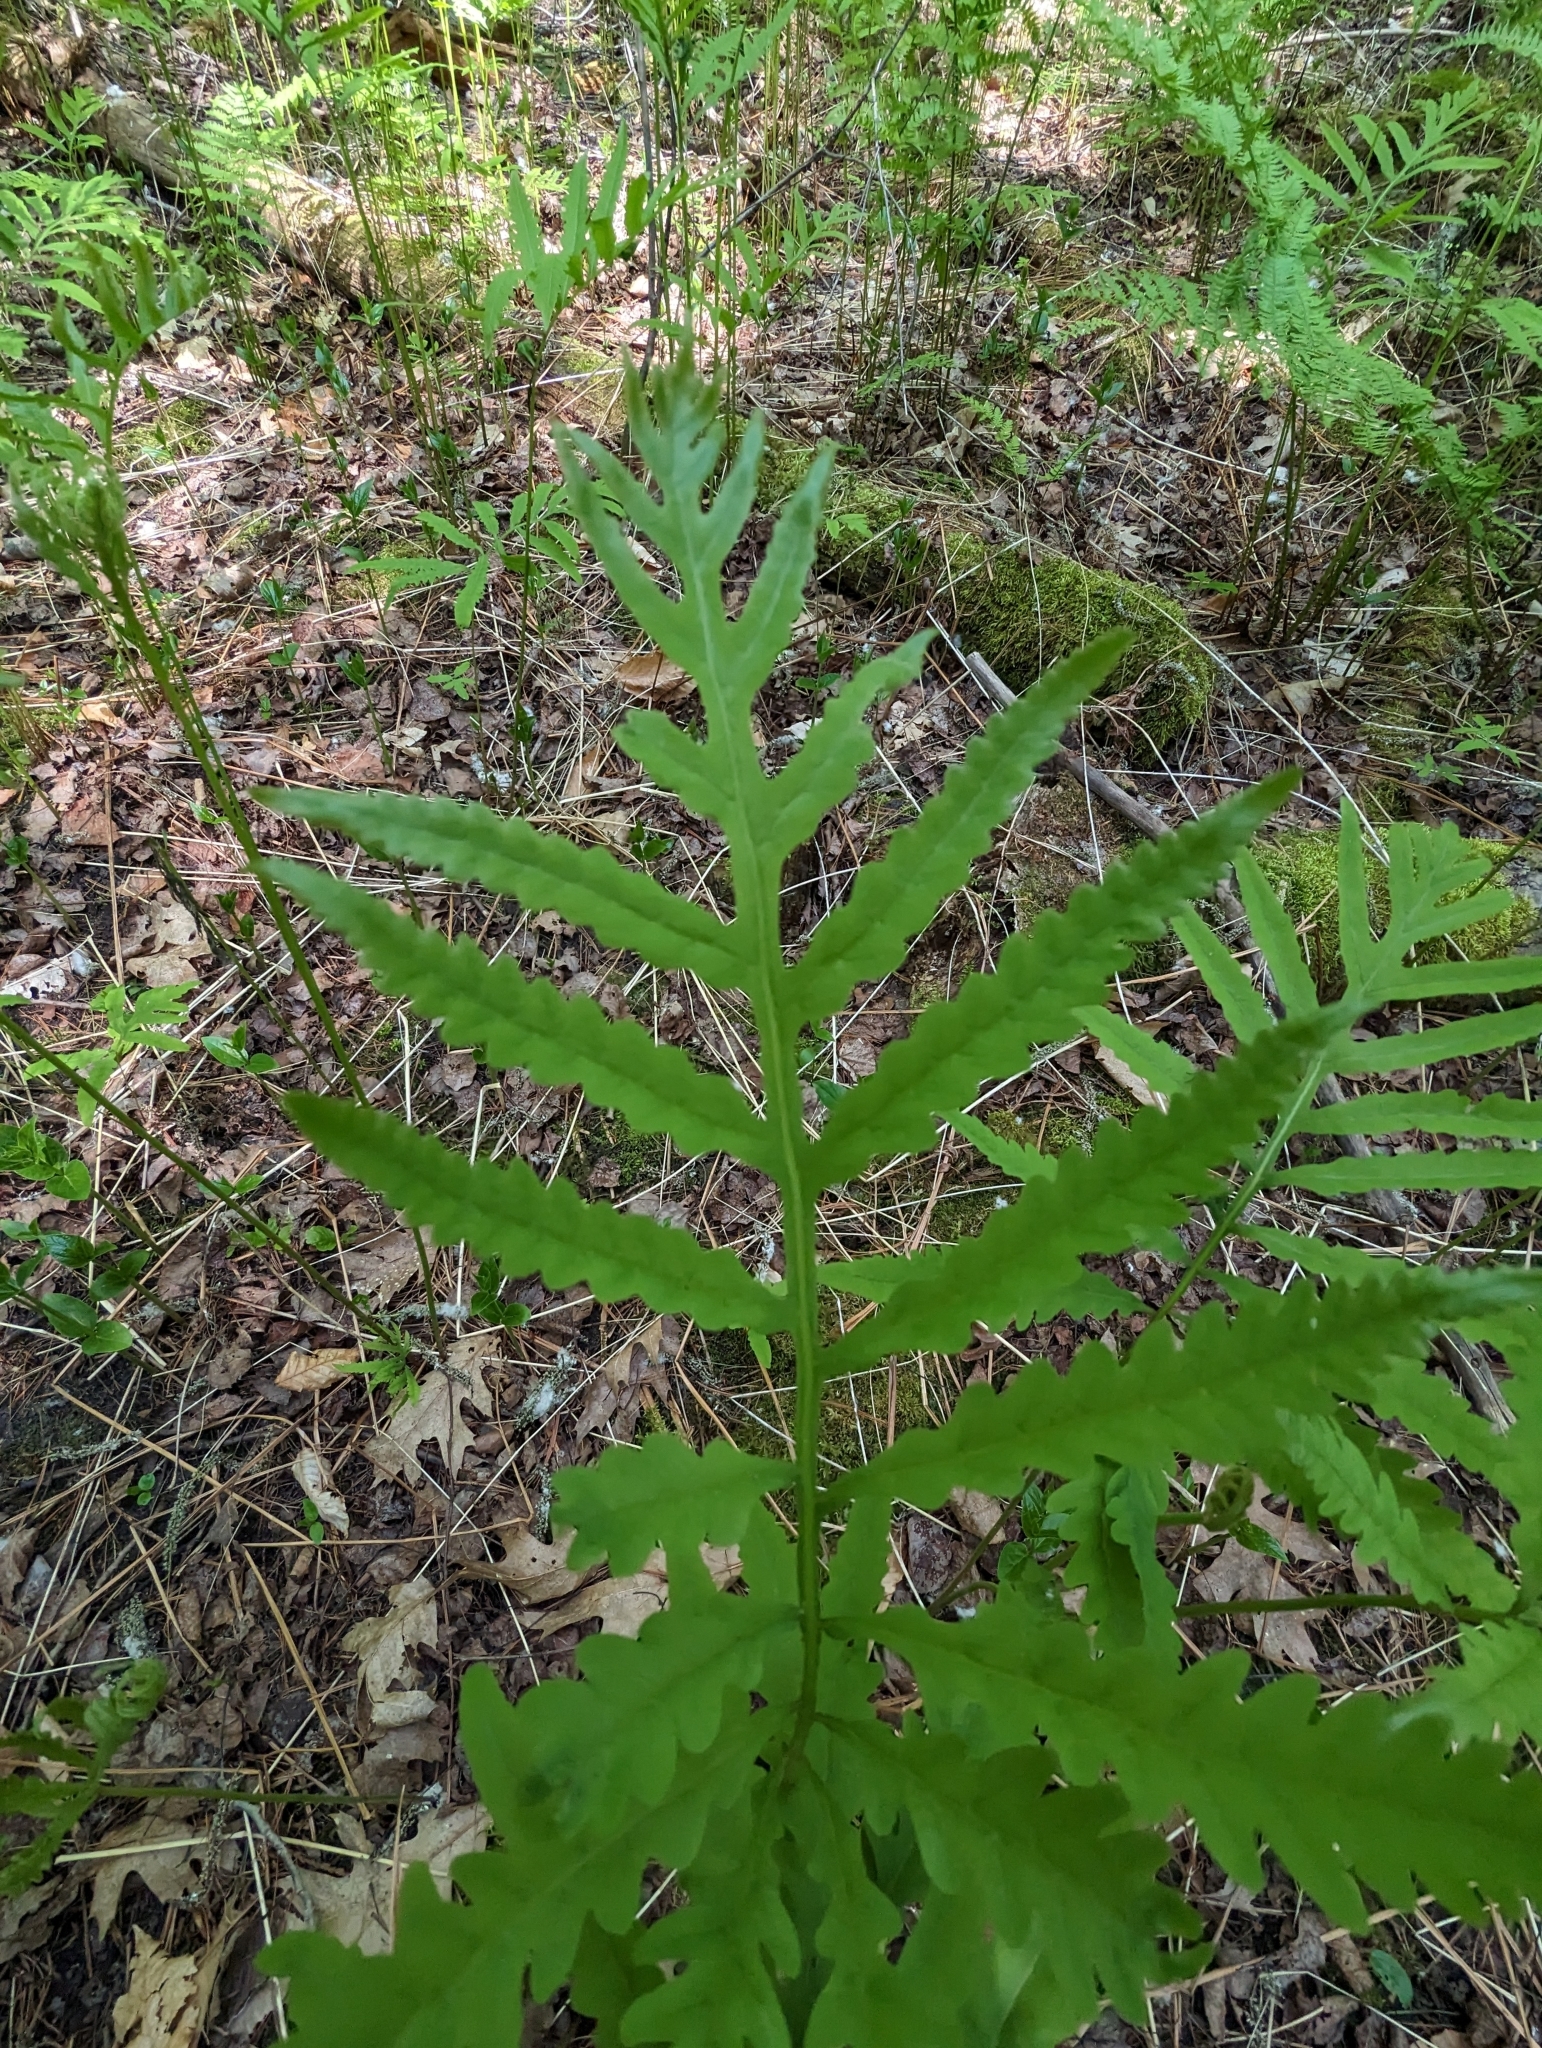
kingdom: Plantae
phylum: Tracheophyta
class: Polypodiopsida
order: Polypodiales
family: Onocleaceae
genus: Onoclea
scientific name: Onoclea sensibilis
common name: Sensitive fern
